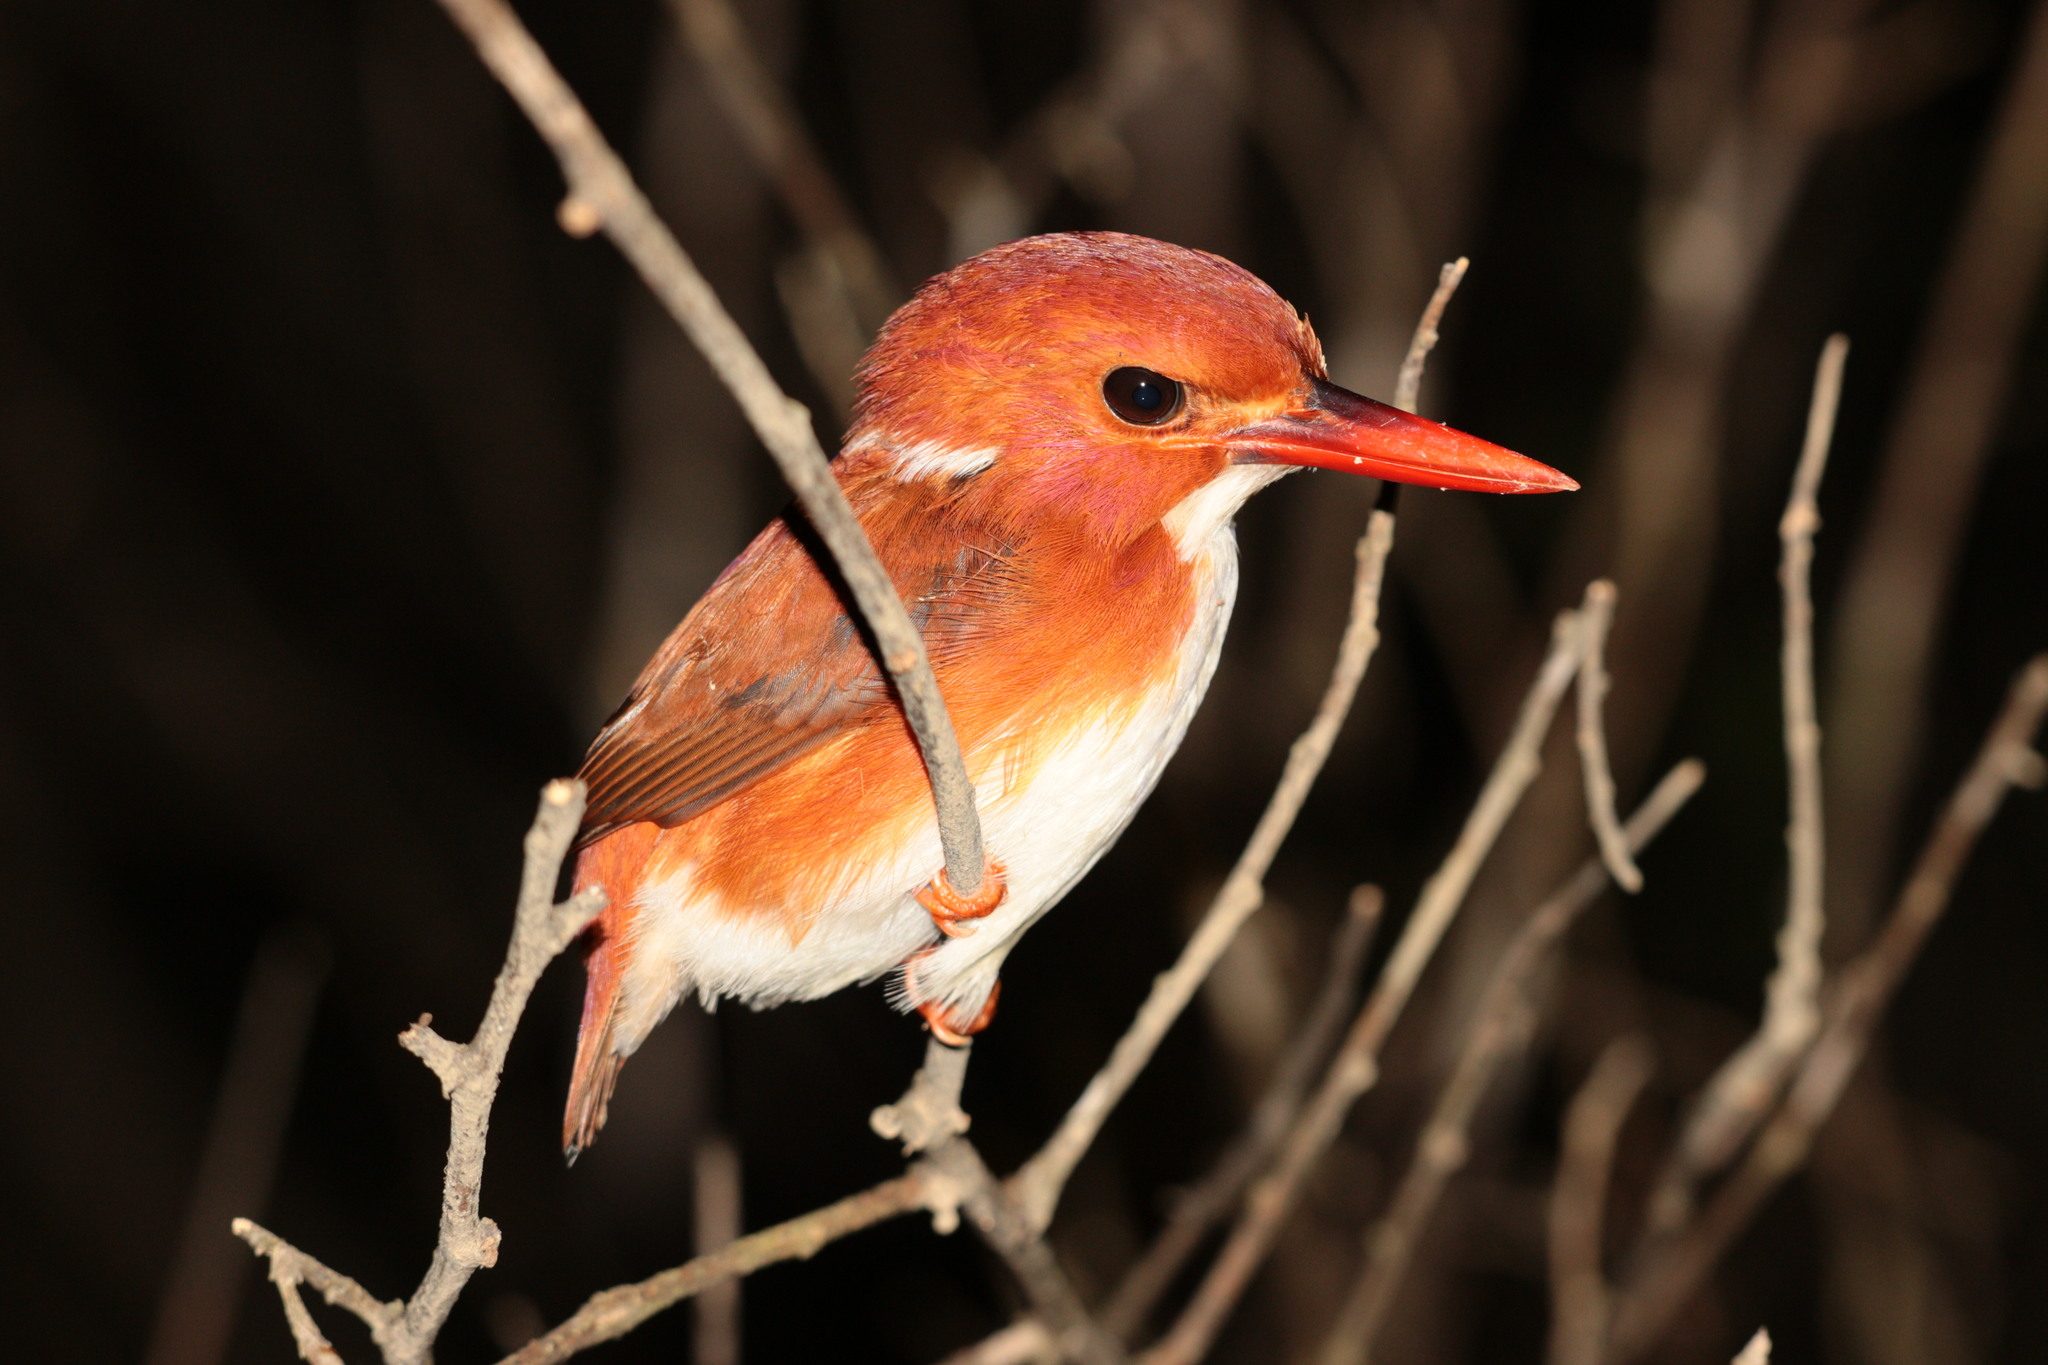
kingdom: Animalia
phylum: Chordata
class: Aves
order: Coraciiformes
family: Alcedinidae
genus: Corythornis
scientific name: Corythornis madagascariensis
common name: Madagascar pygmy-kingfisher
